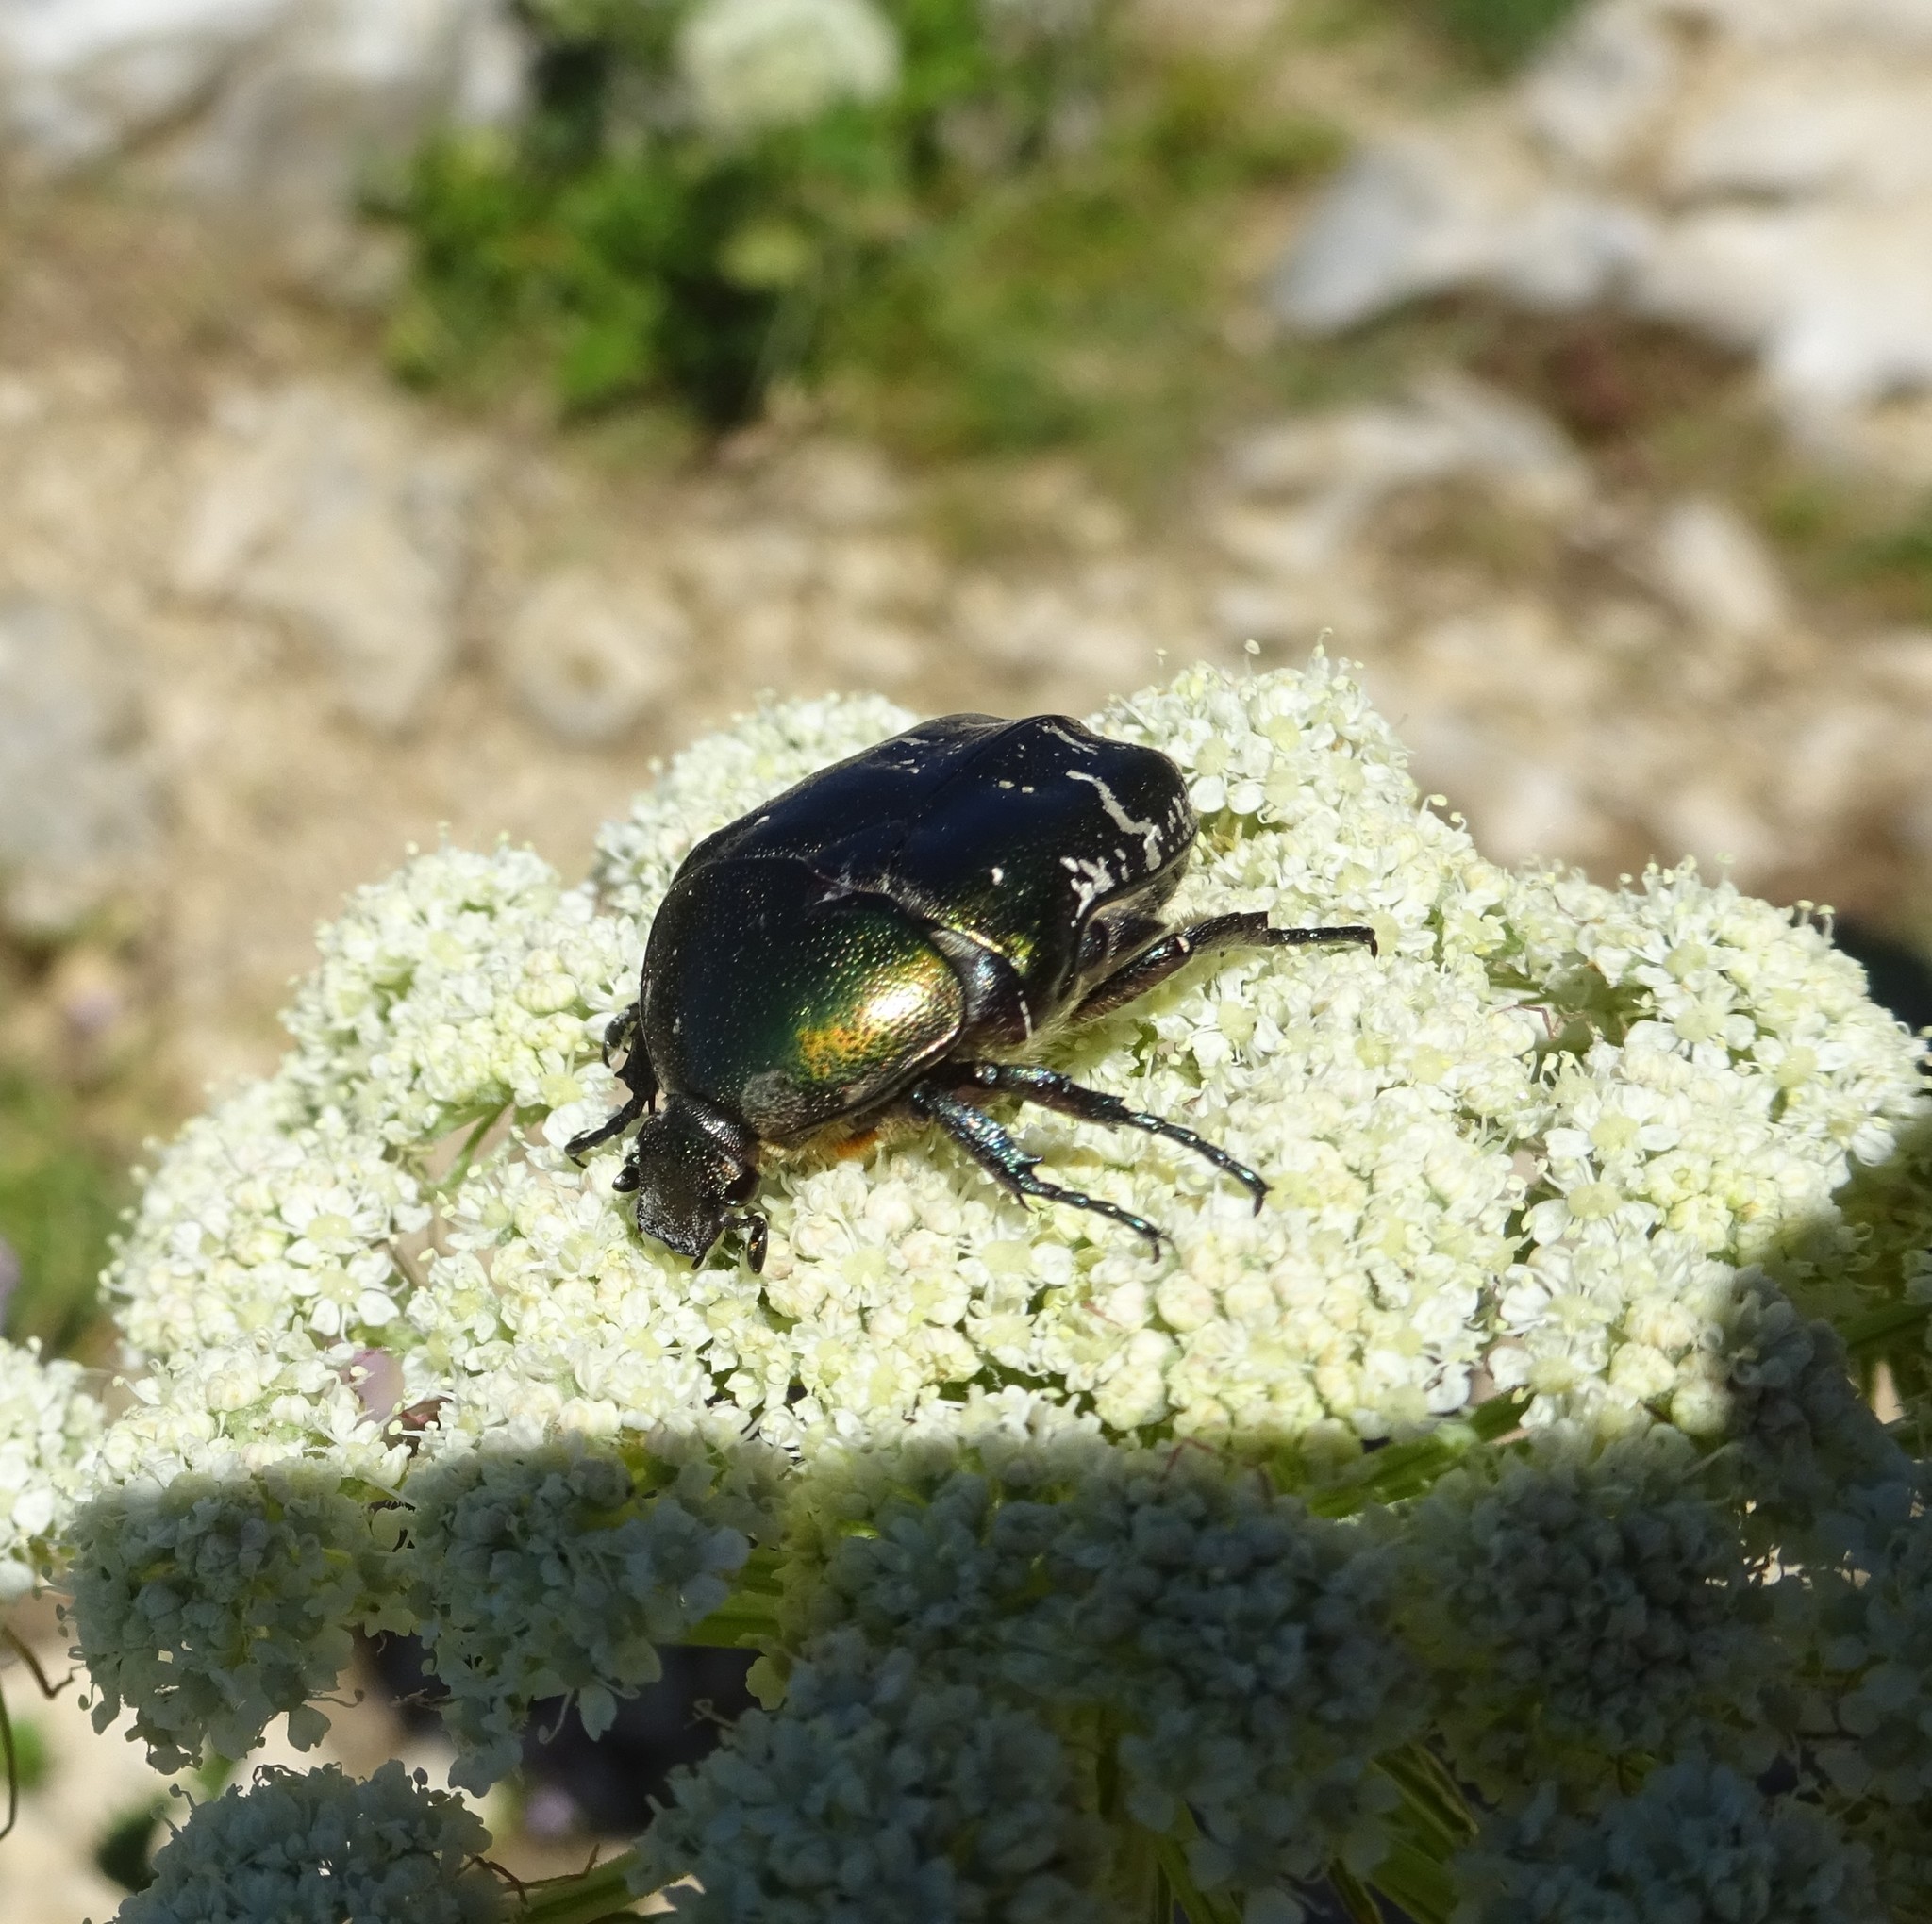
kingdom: Animalia
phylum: Arthropoda
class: Insecta
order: Coleoptera
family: Scarabaeidae
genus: Cetonia
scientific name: Cetonia aurata
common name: Rose chafer
